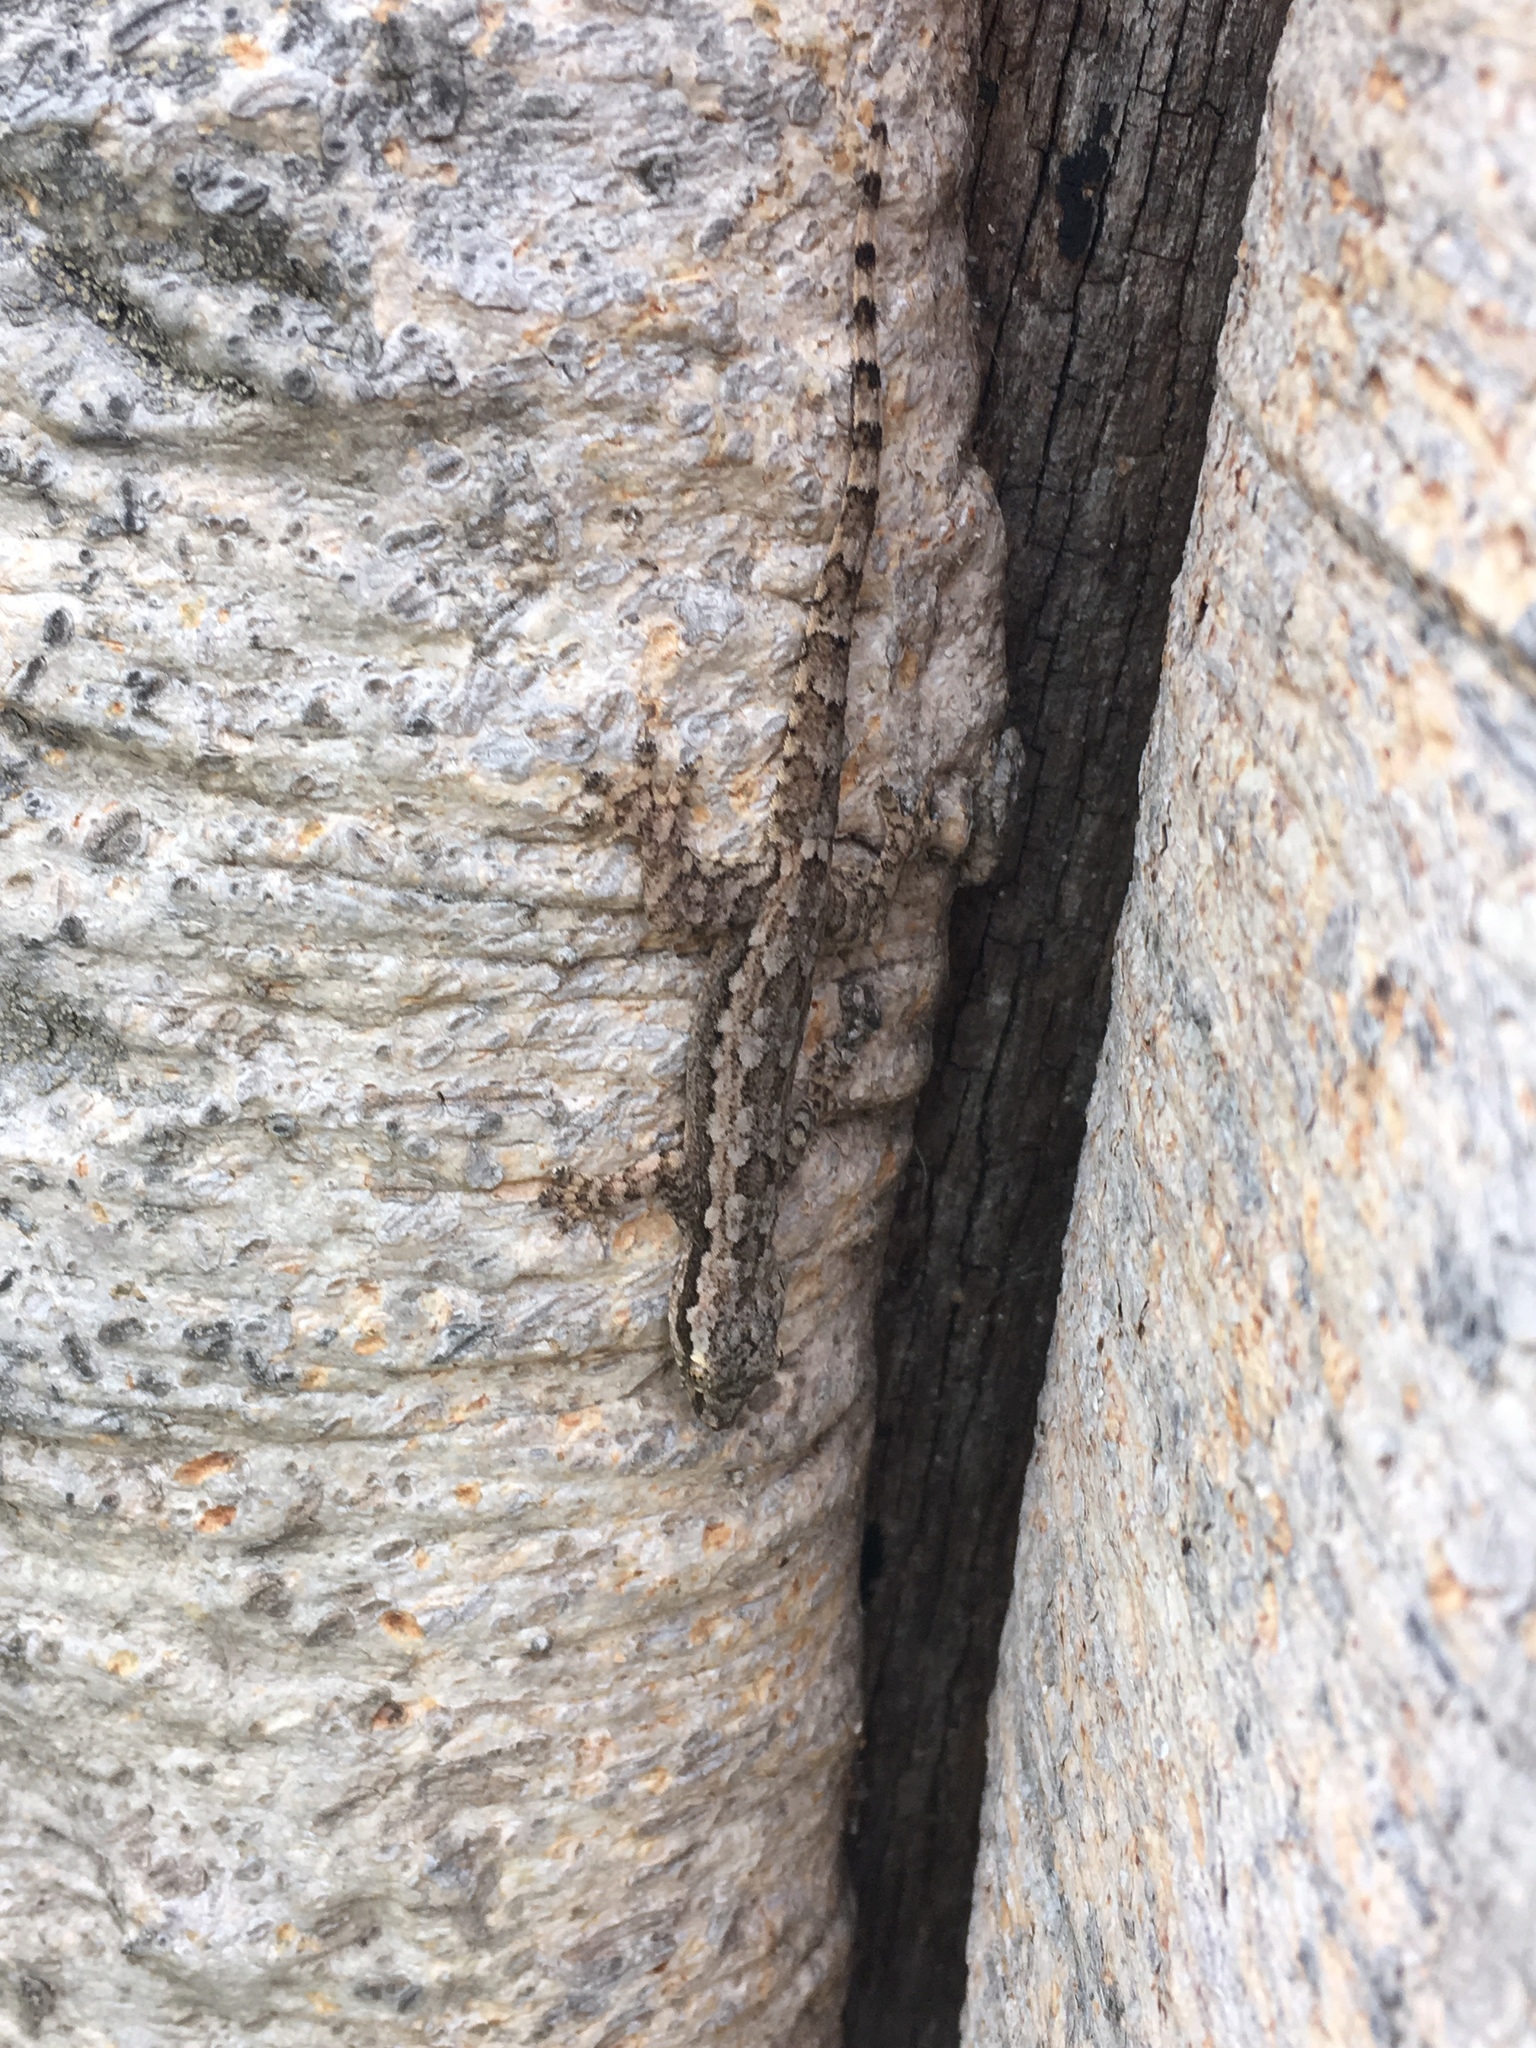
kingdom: Animalia
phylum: Chordata
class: Squamata
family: Gekkonidae
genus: Hemidactylus
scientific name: Hemidactylus platyurus
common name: Flat-tailed house gecko
